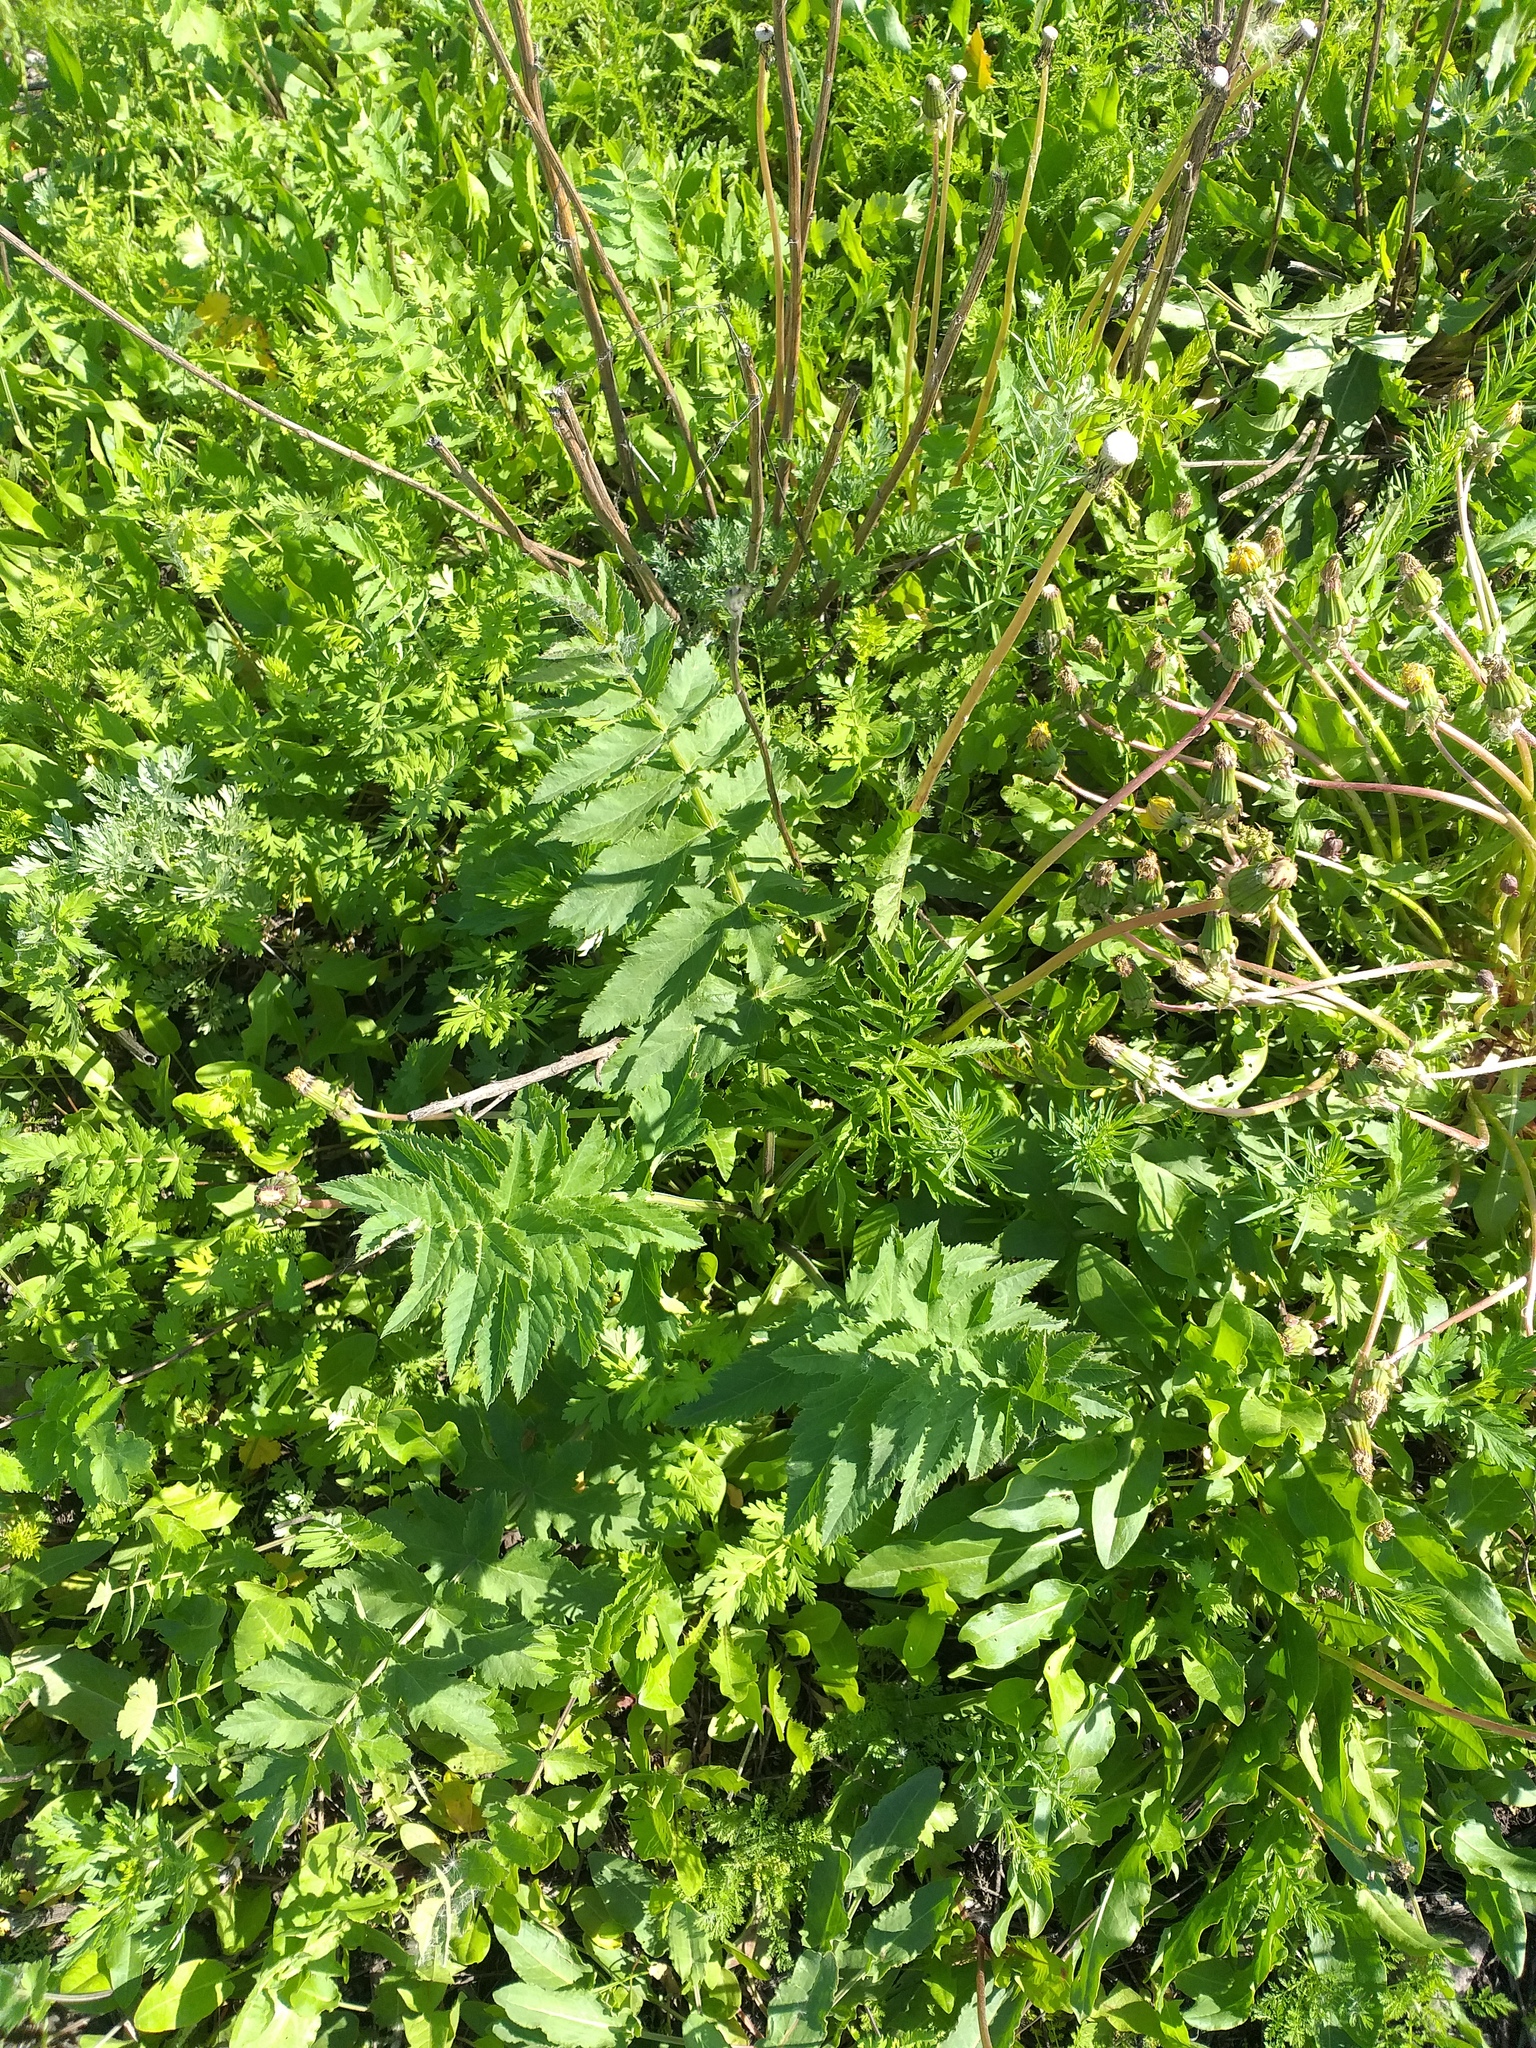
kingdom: Plantae
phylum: Tracheophyta
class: Magnoliopsida
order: Apiales
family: Apiaceae
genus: Pastinaca
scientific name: Pastinaca sativa
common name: Wild parsnip
